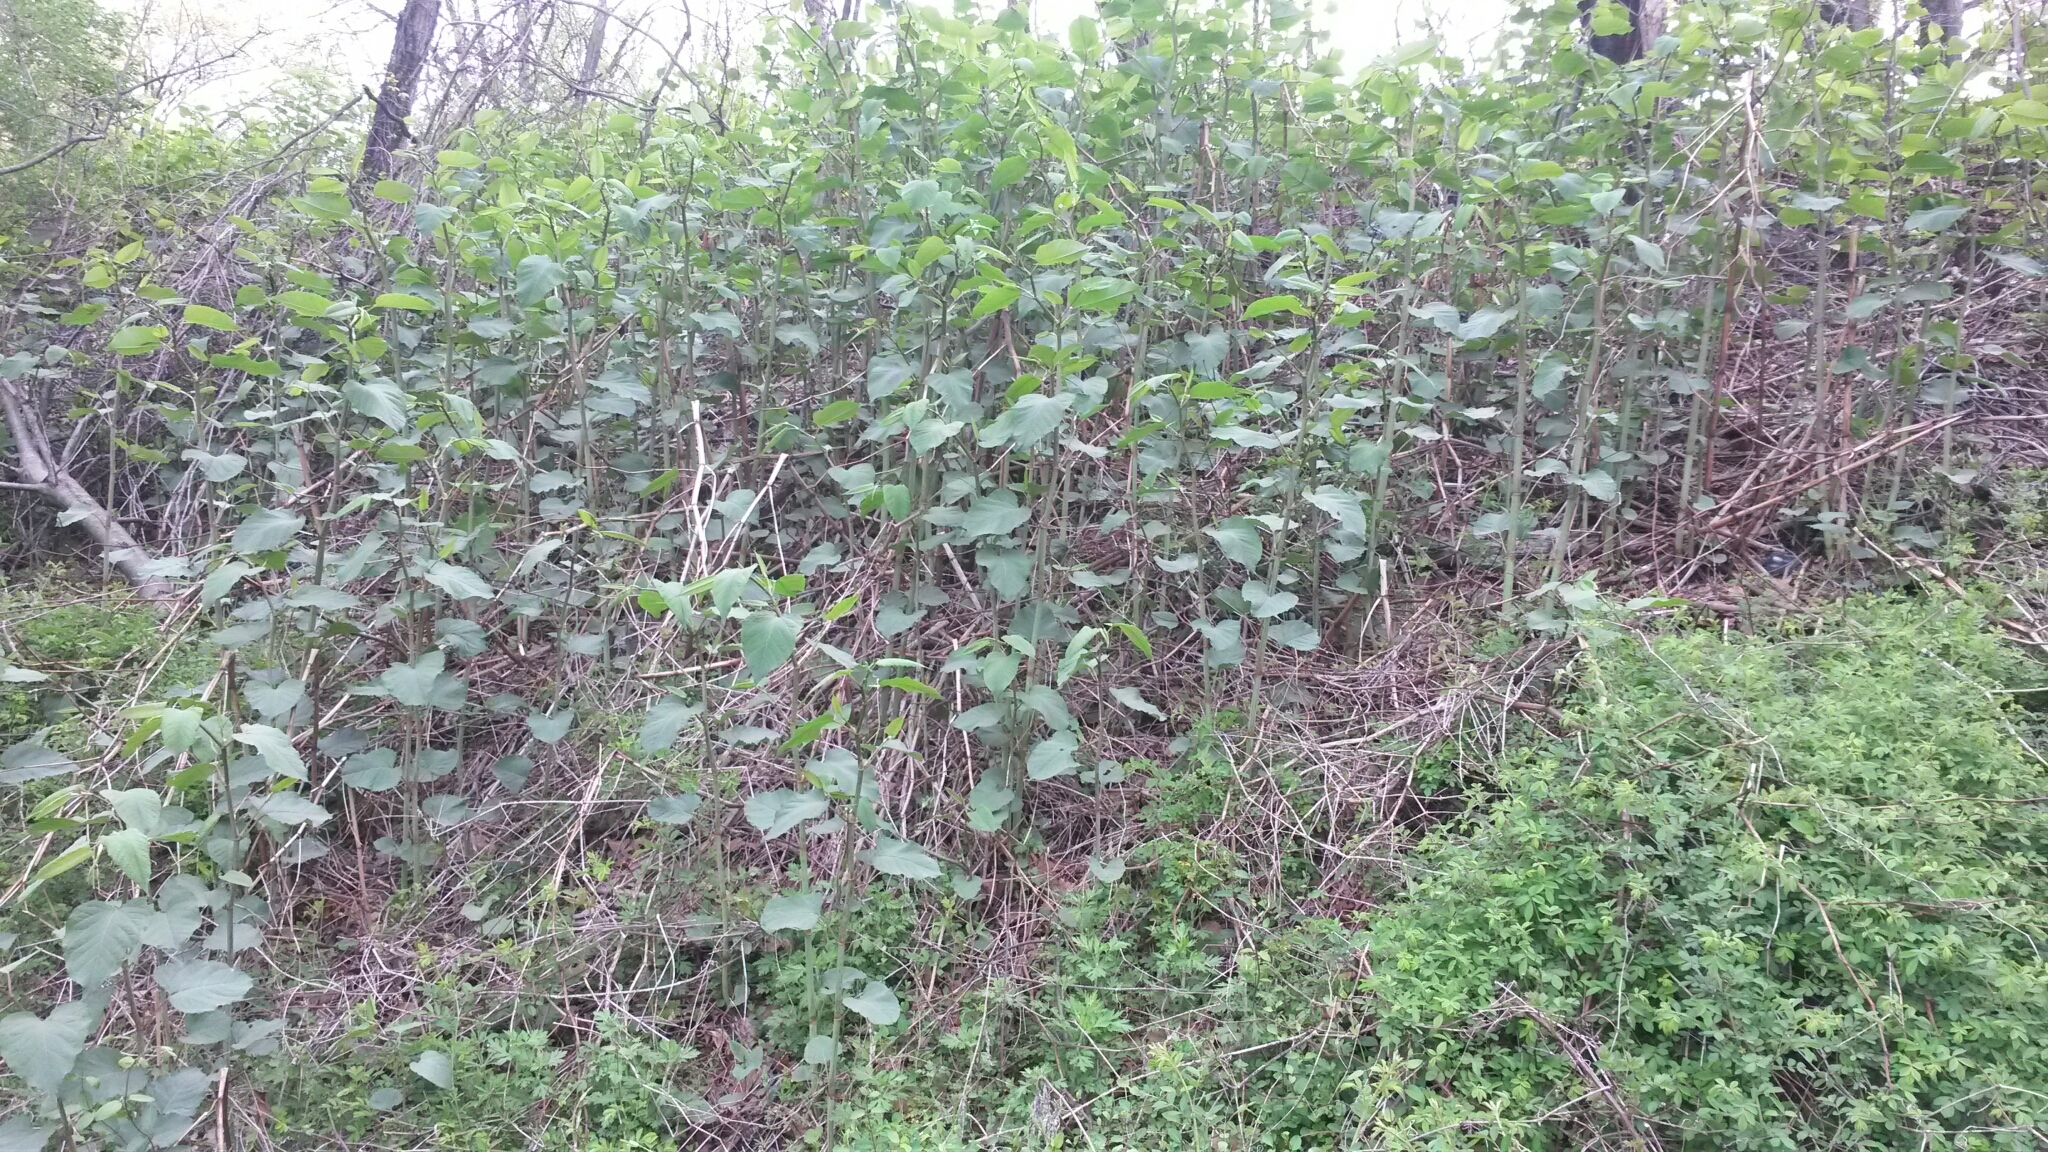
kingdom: Plantae
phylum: Tracheophyta
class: Magnoliopsida
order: Caryophyllales
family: Polygonaceae
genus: Reynoutria
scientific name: Reynoutria japonica
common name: Japanese knotweed
